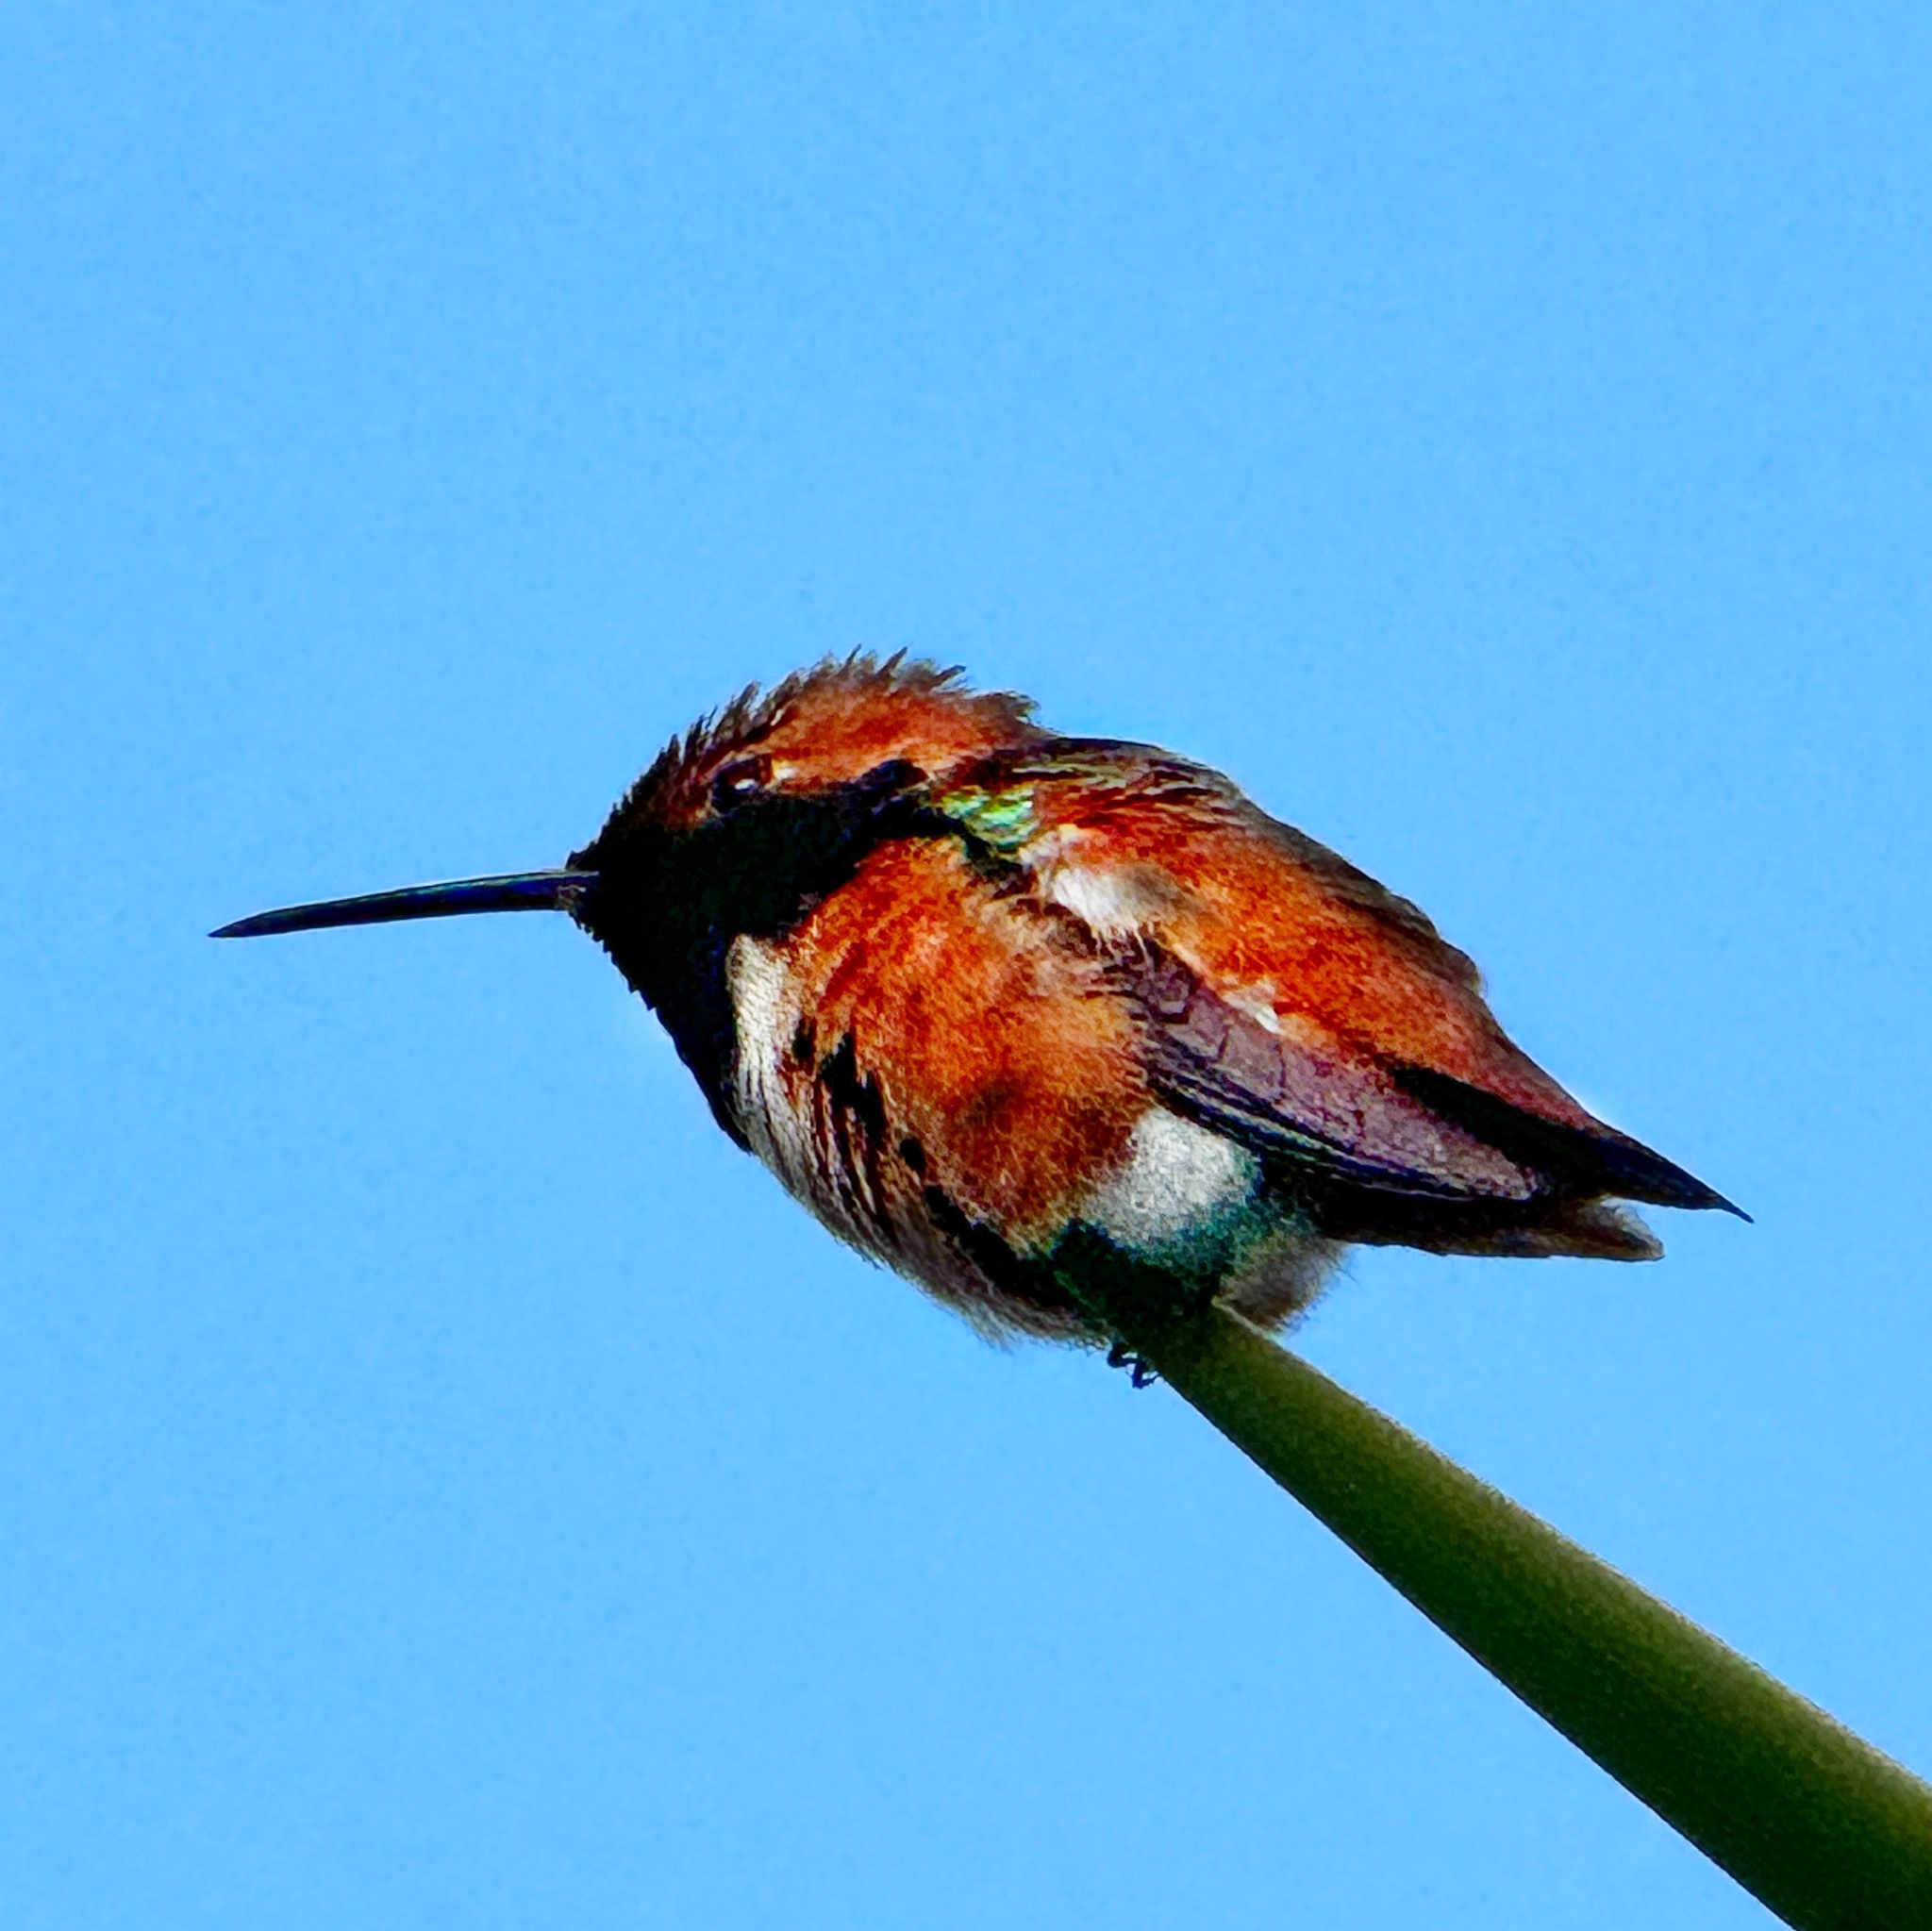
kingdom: Animalia
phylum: Chordata
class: Aves
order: Apodiformes
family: Trochilidae
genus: Selasphorus
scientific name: Selasphorus sasin
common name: Allen's hummingbird
